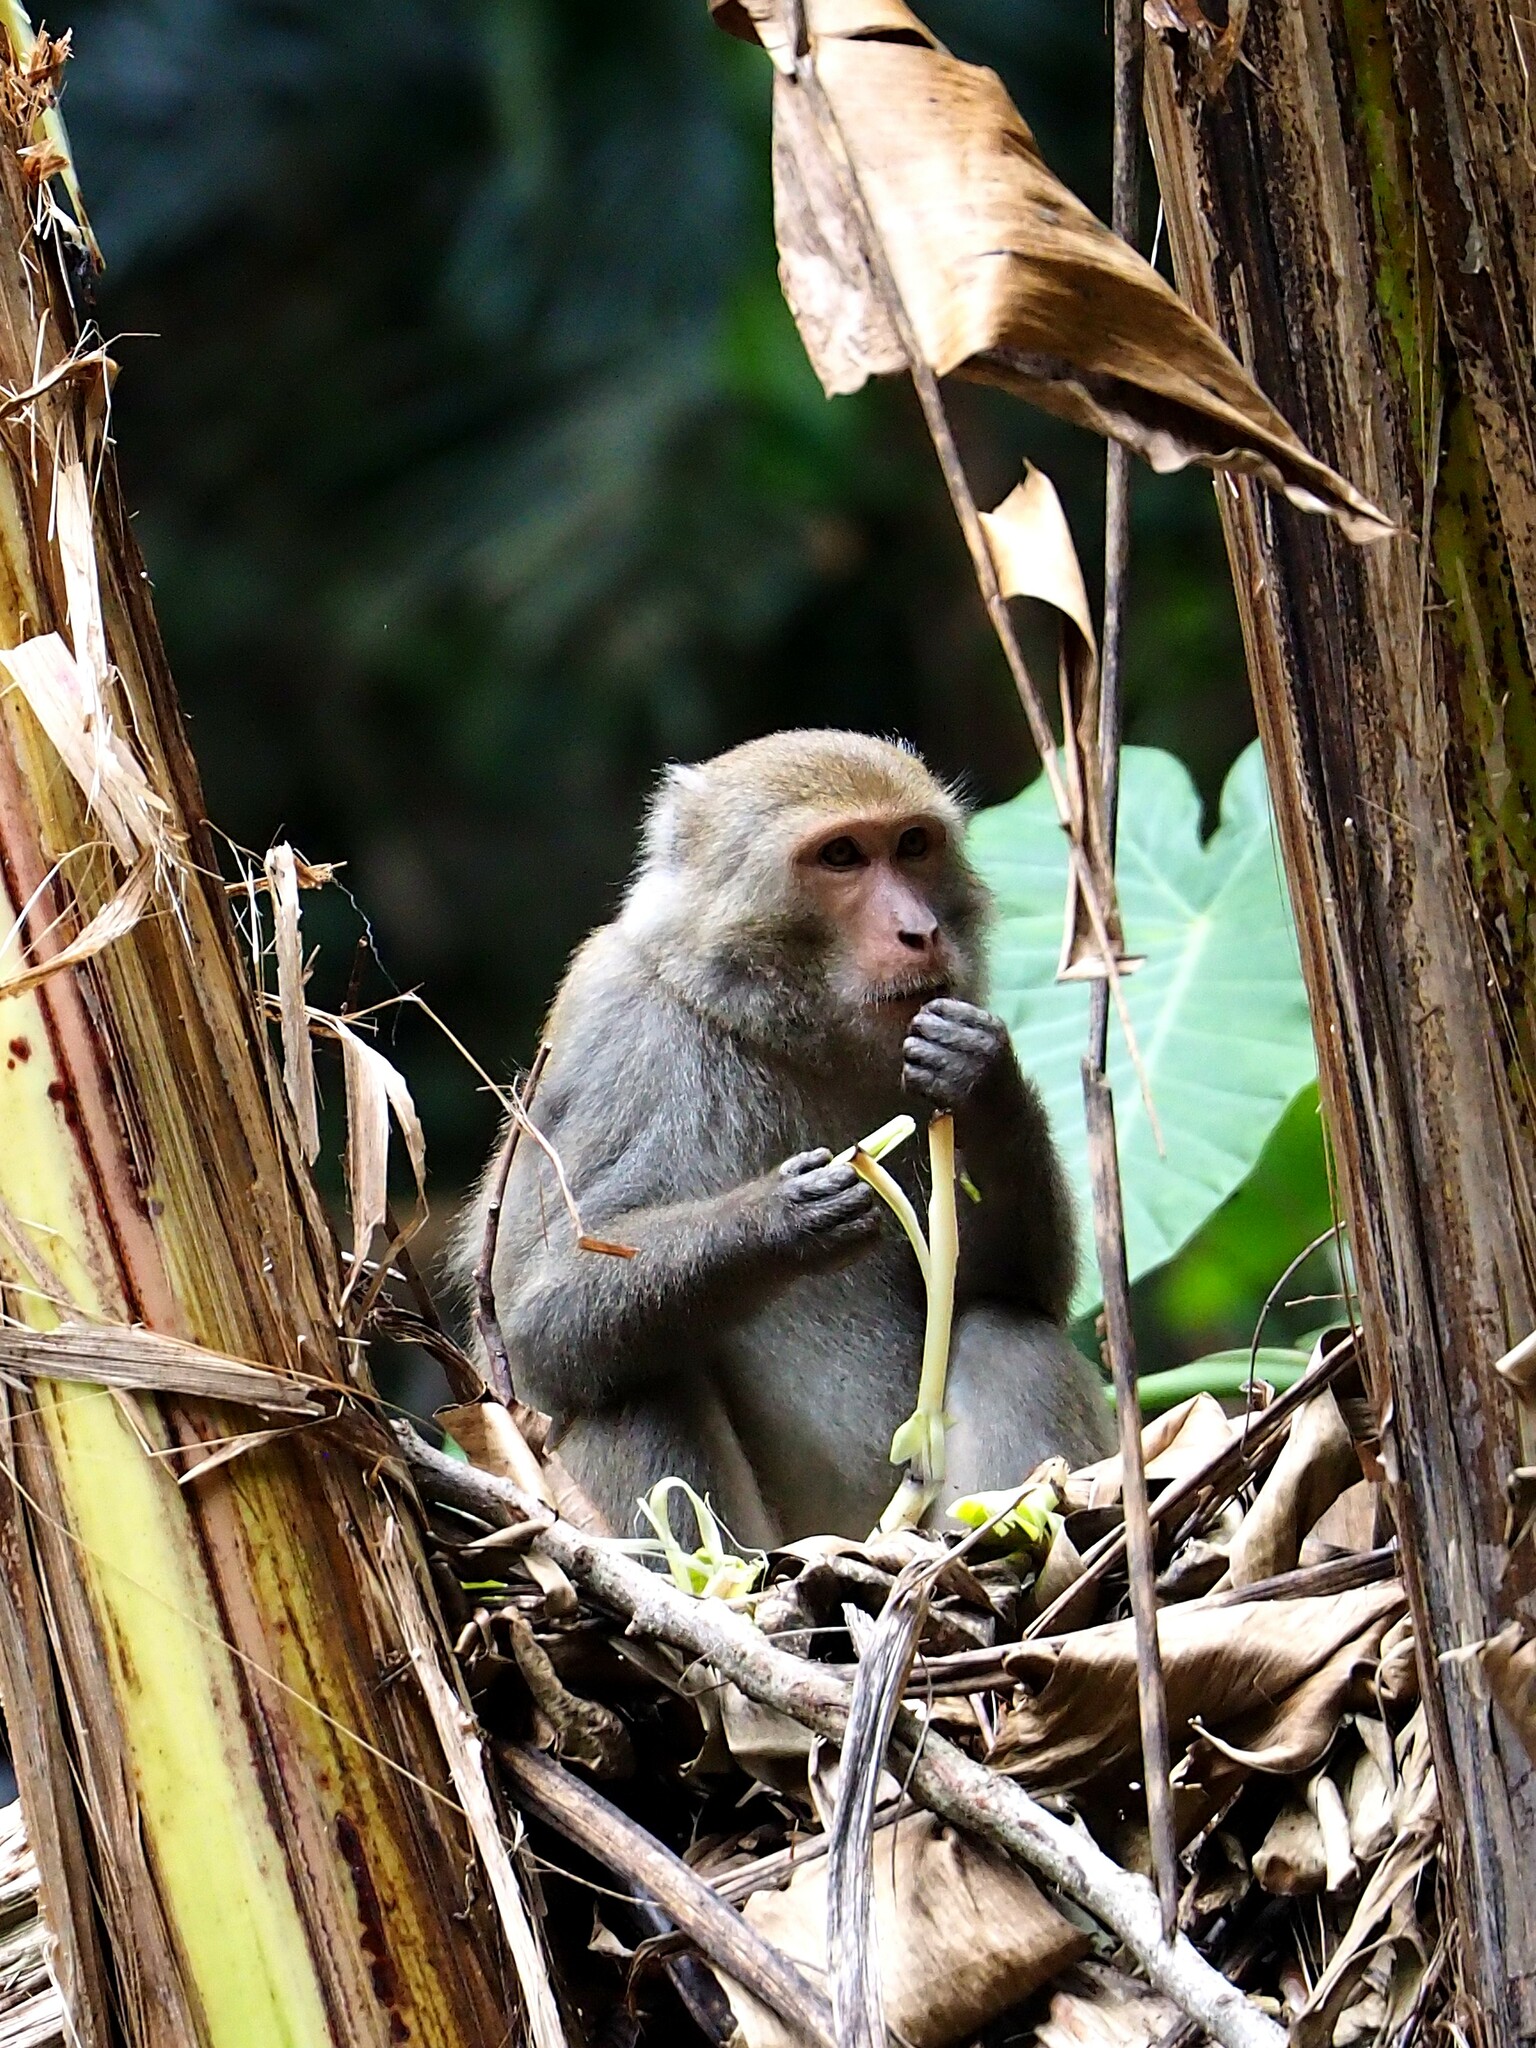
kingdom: Animalia
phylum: Chordata
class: Mammalia
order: Primates
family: Cercopithecidae
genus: Macaca
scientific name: Macaca cyclopis
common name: Formosan rock macaque
